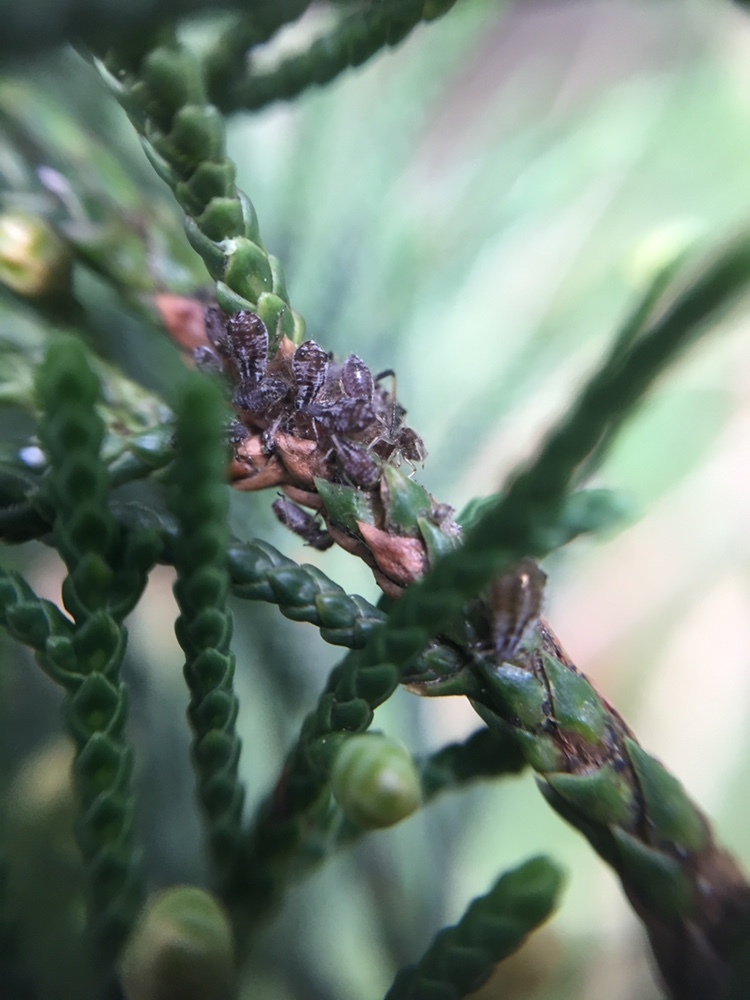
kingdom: Animalia
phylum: Arthropoda
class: Insecta
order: Hemiptera
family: Aphididae
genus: Cinara
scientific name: Cinara fresai
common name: Juniper aphid
